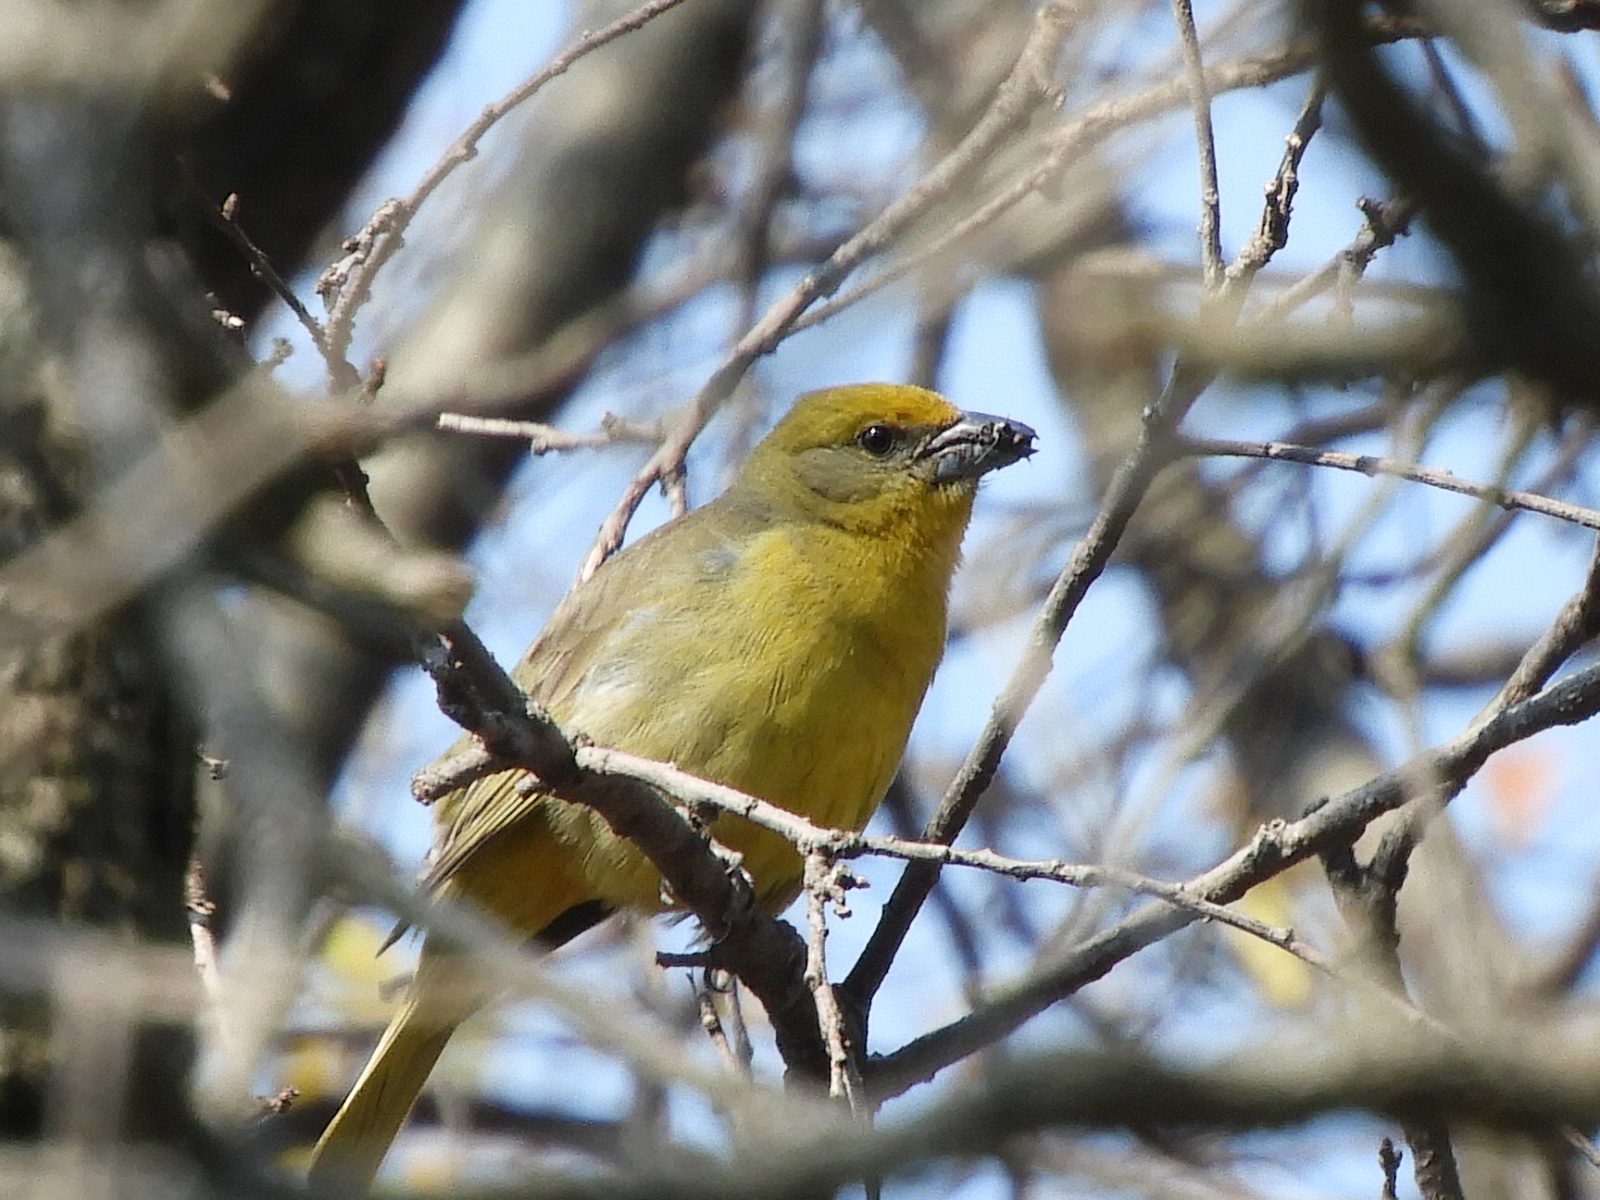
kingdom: Animalia
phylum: Chordata
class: Aves
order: Passeriformes
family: Cardinalidae
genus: Piranga
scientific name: Piranga flava
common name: Red tanager
